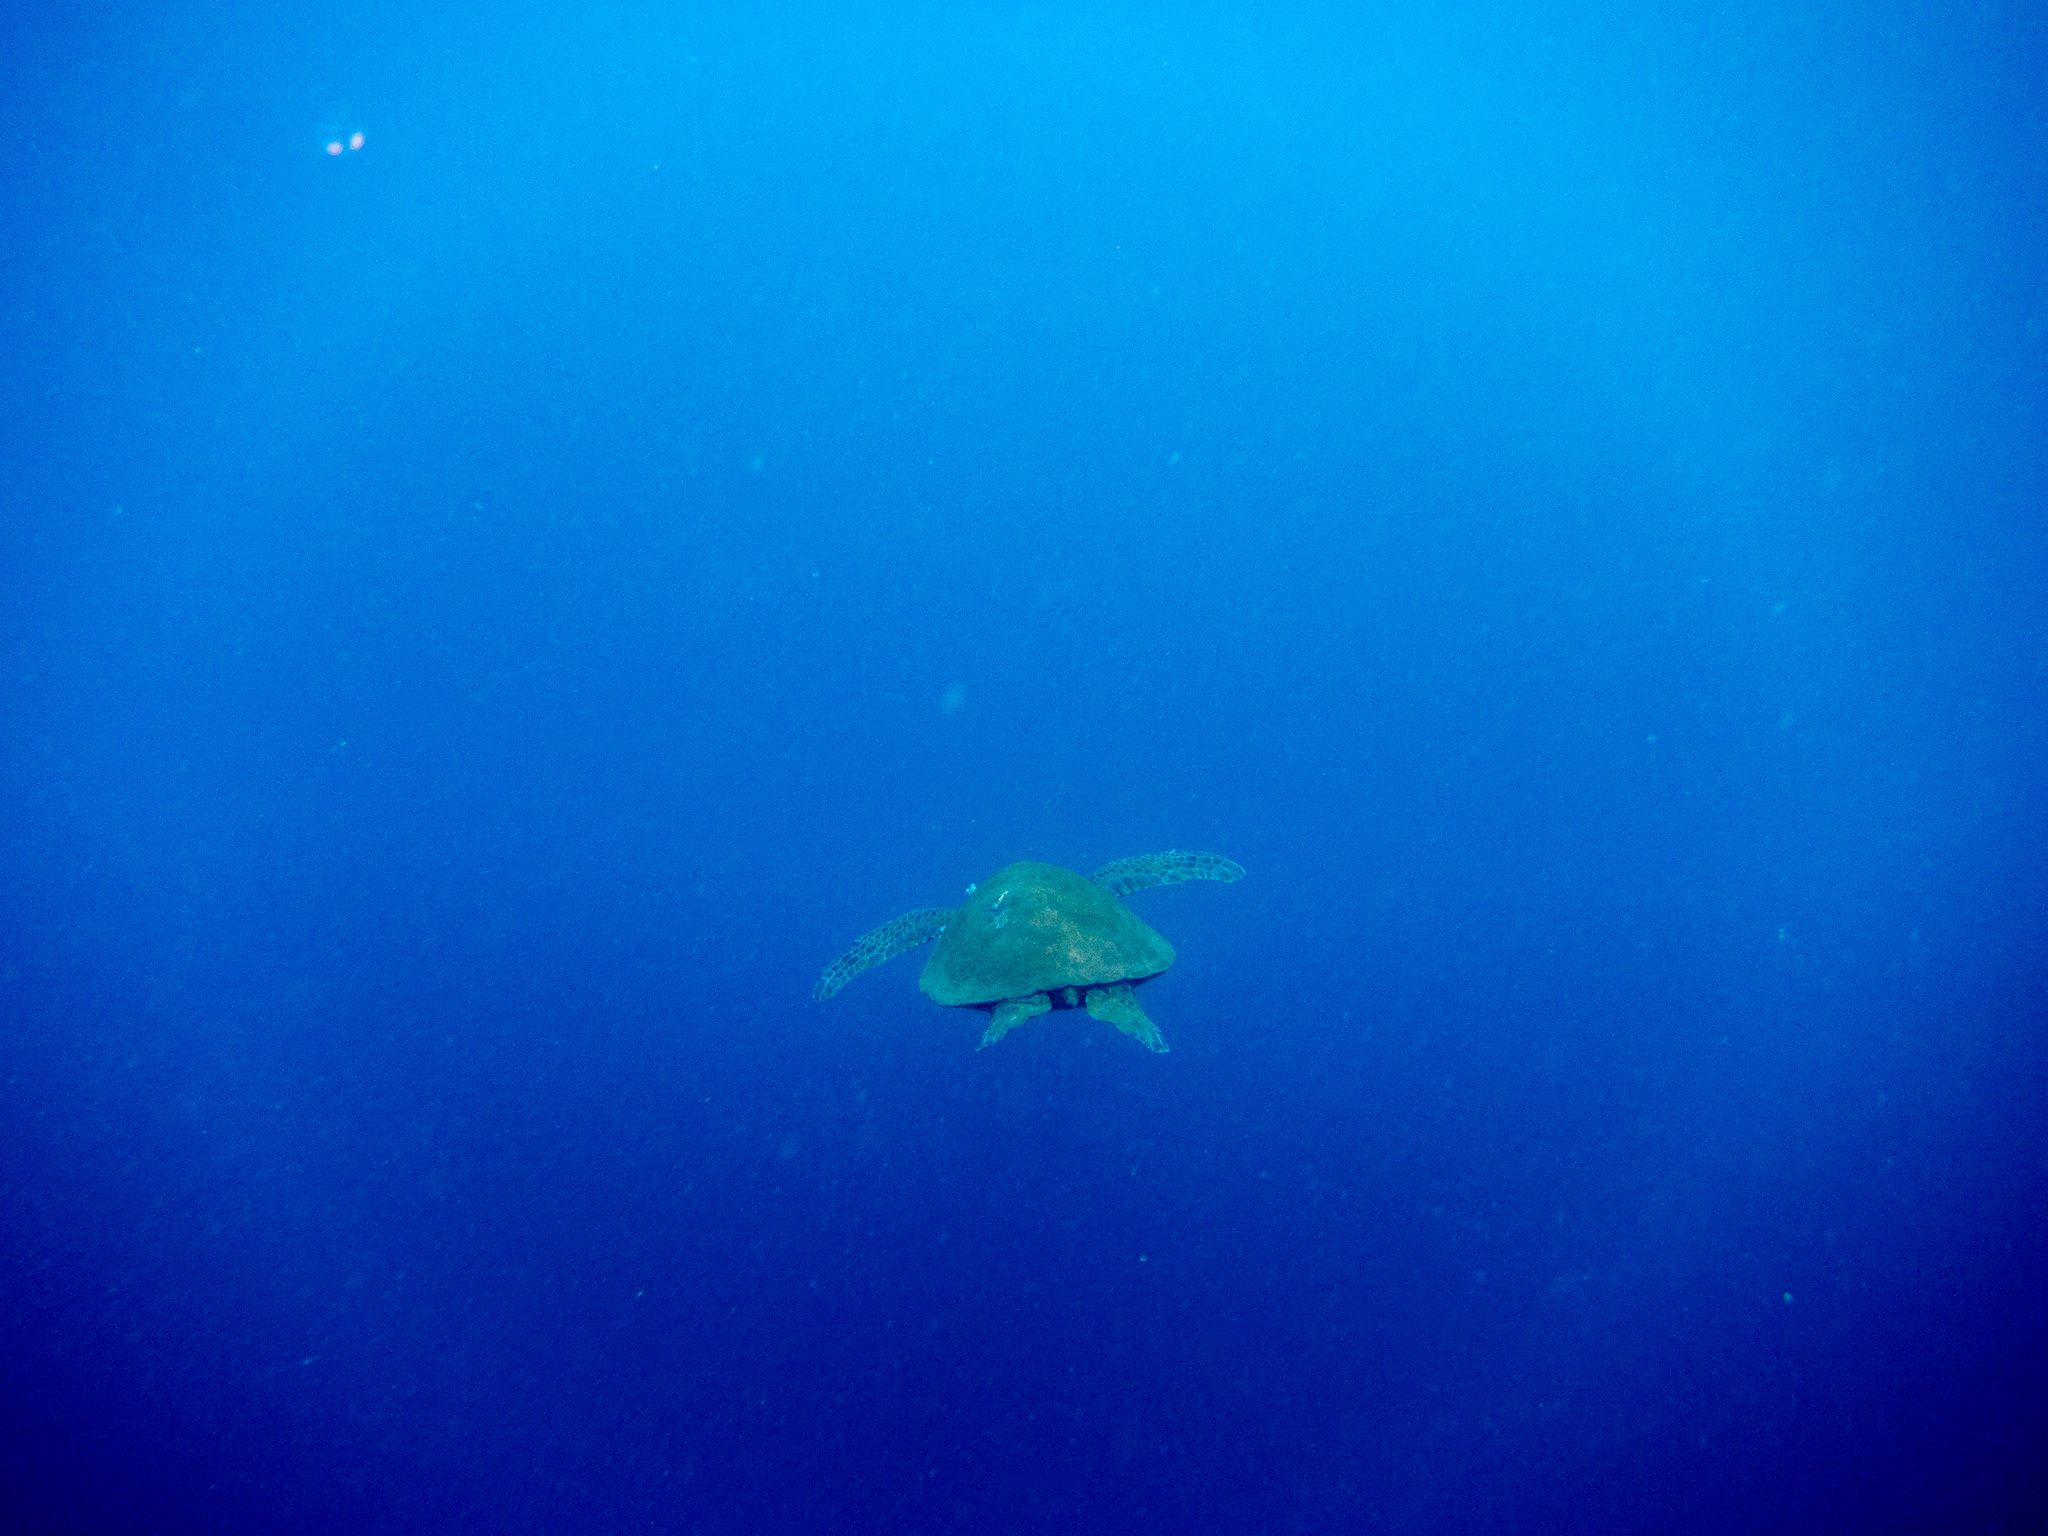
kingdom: Animalia
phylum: Chordata
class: Testudines
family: Cheloniidae
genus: Chelonia
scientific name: Chelonia mydas
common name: Green turtle
